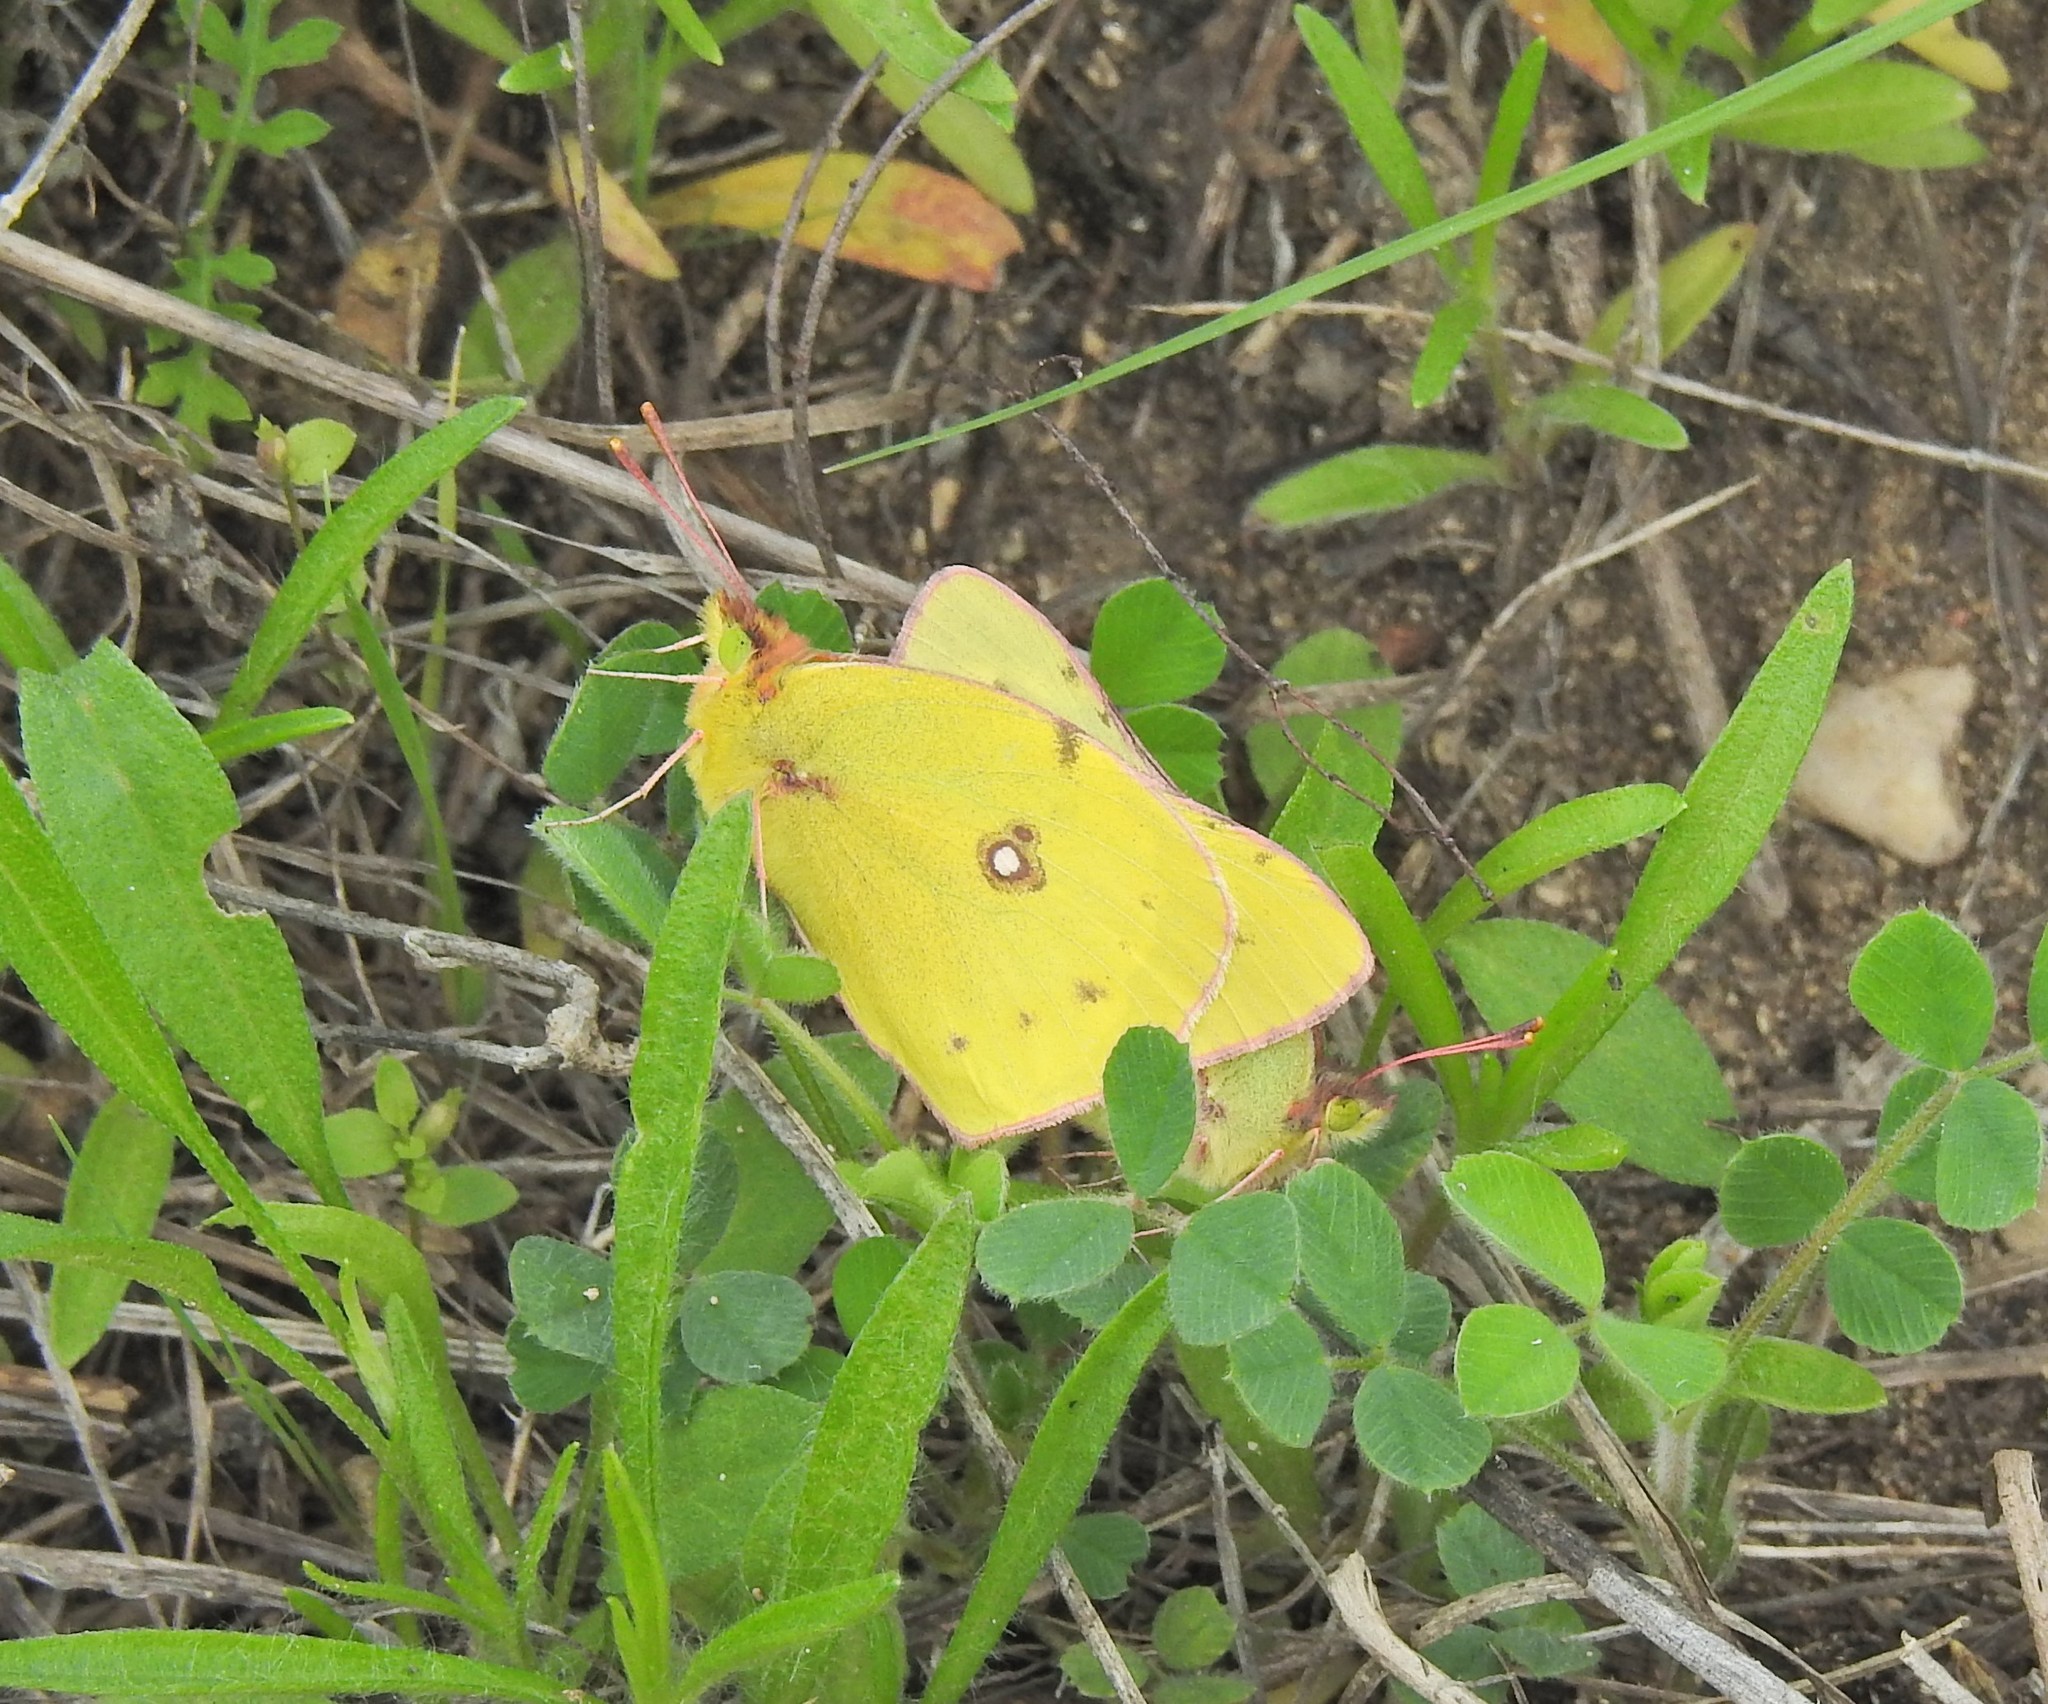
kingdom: Animalia
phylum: Arthropoda
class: Insecta
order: Lepidoptera
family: Pieridae
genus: Colias
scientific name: Colias eurytheme
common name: Alfalfa butterfly
